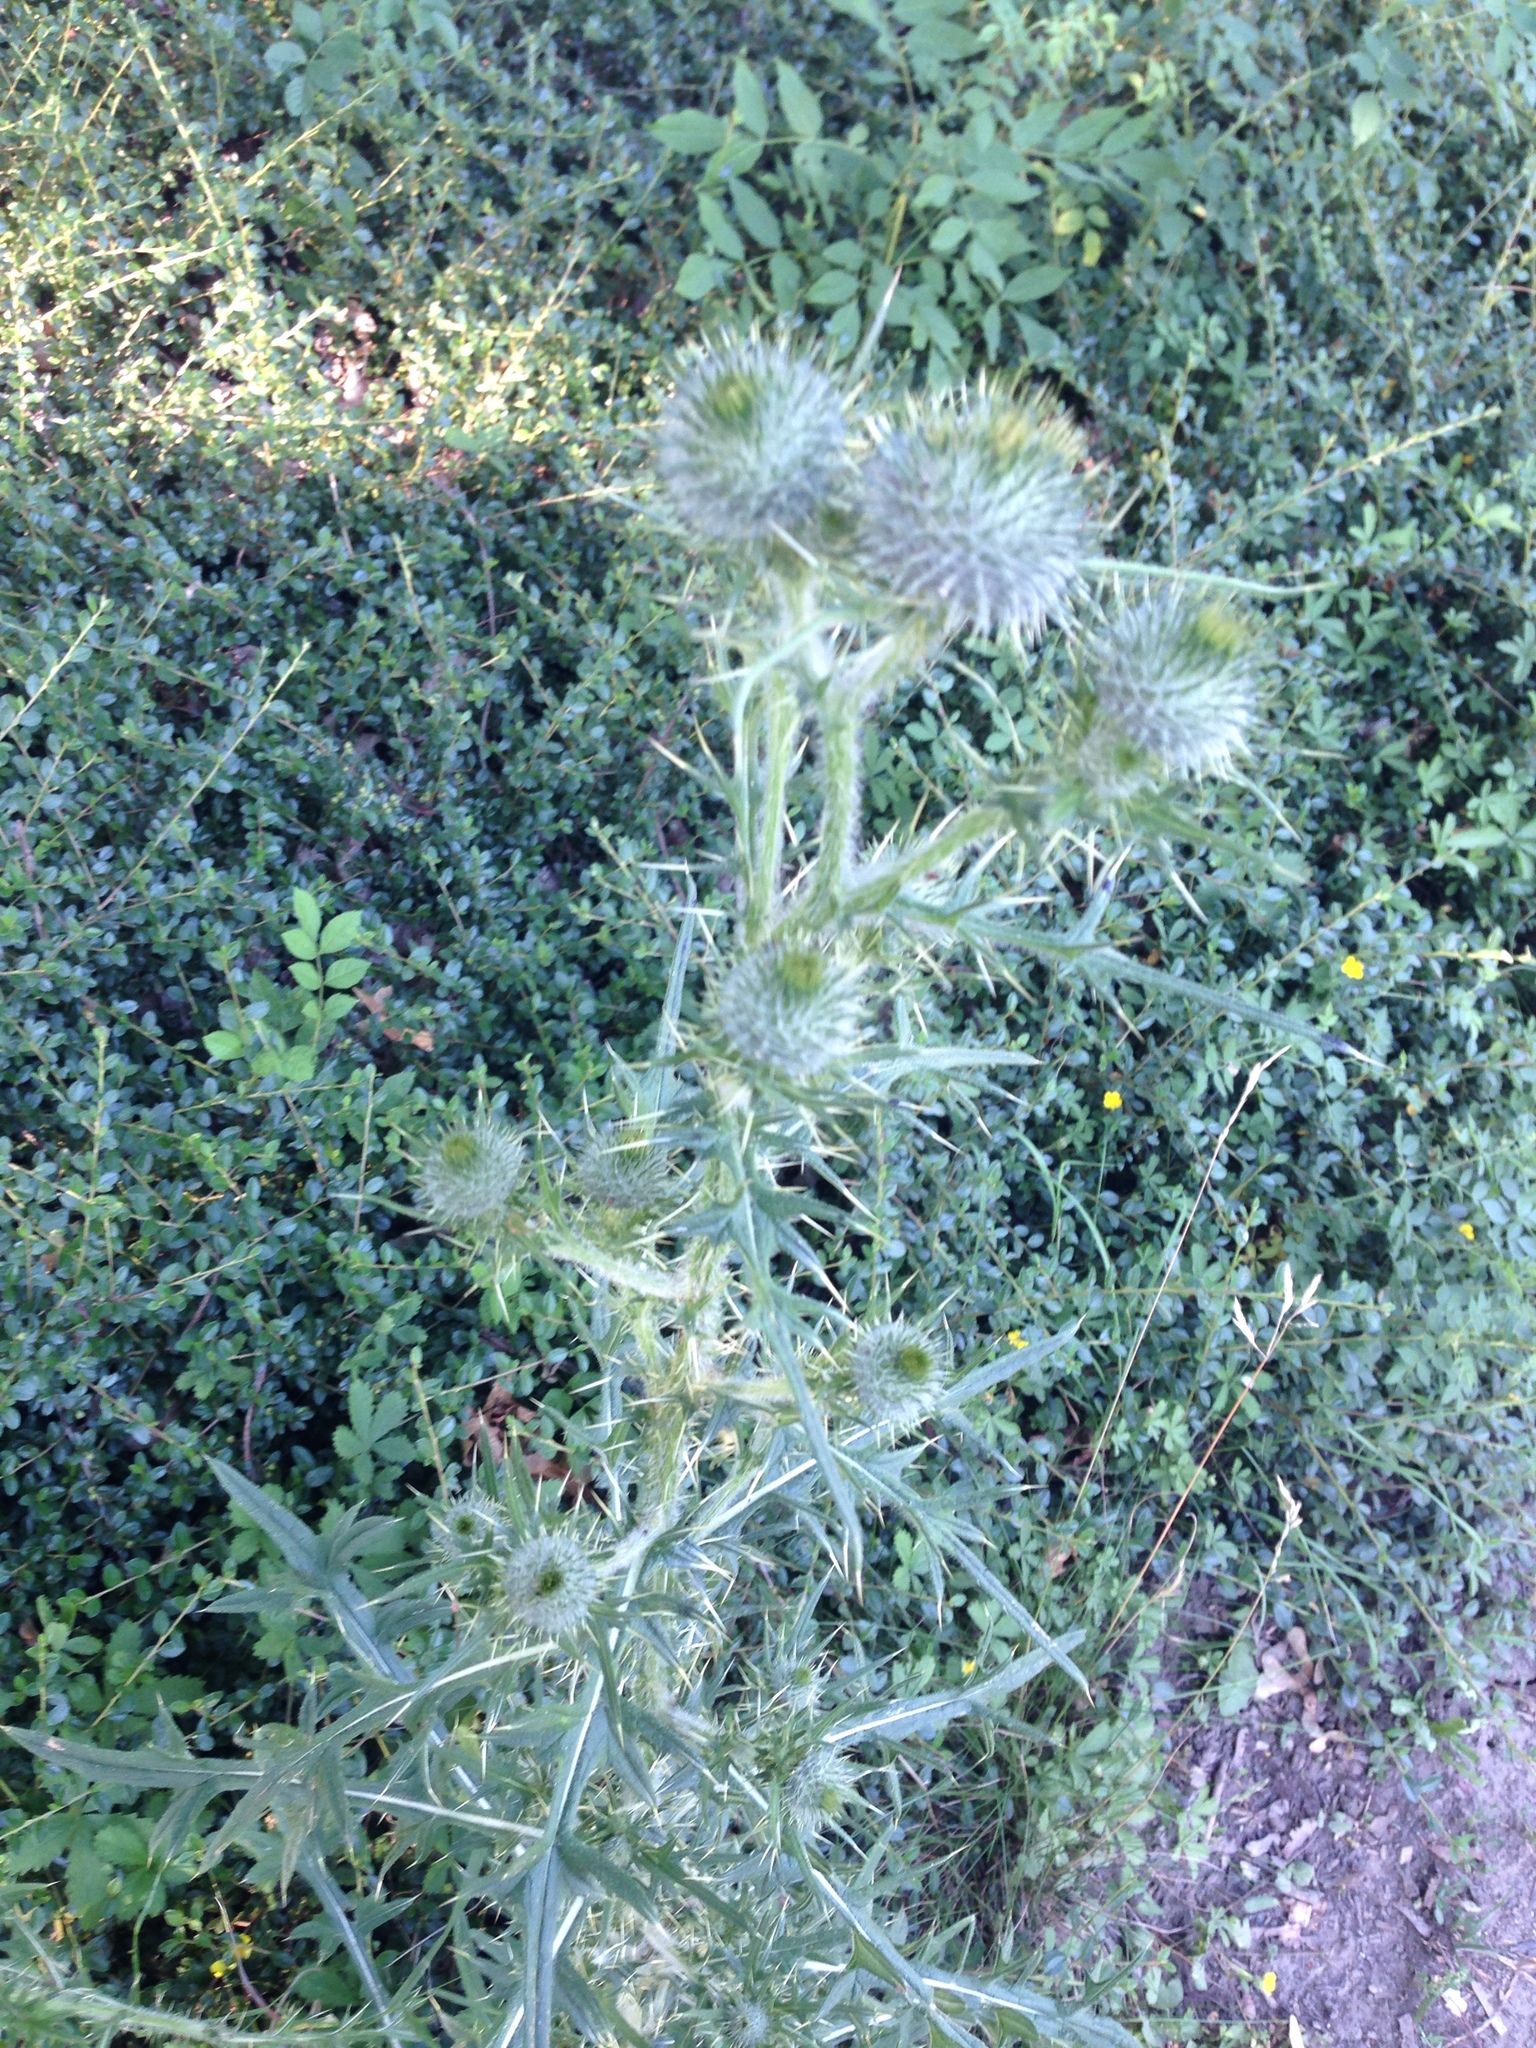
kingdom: Plantae
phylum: Tracheophyta
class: Magnoliopsida
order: Asterales
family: Asteraceae
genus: Cirsium
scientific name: Cirsium vulgare
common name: Bull thistle
